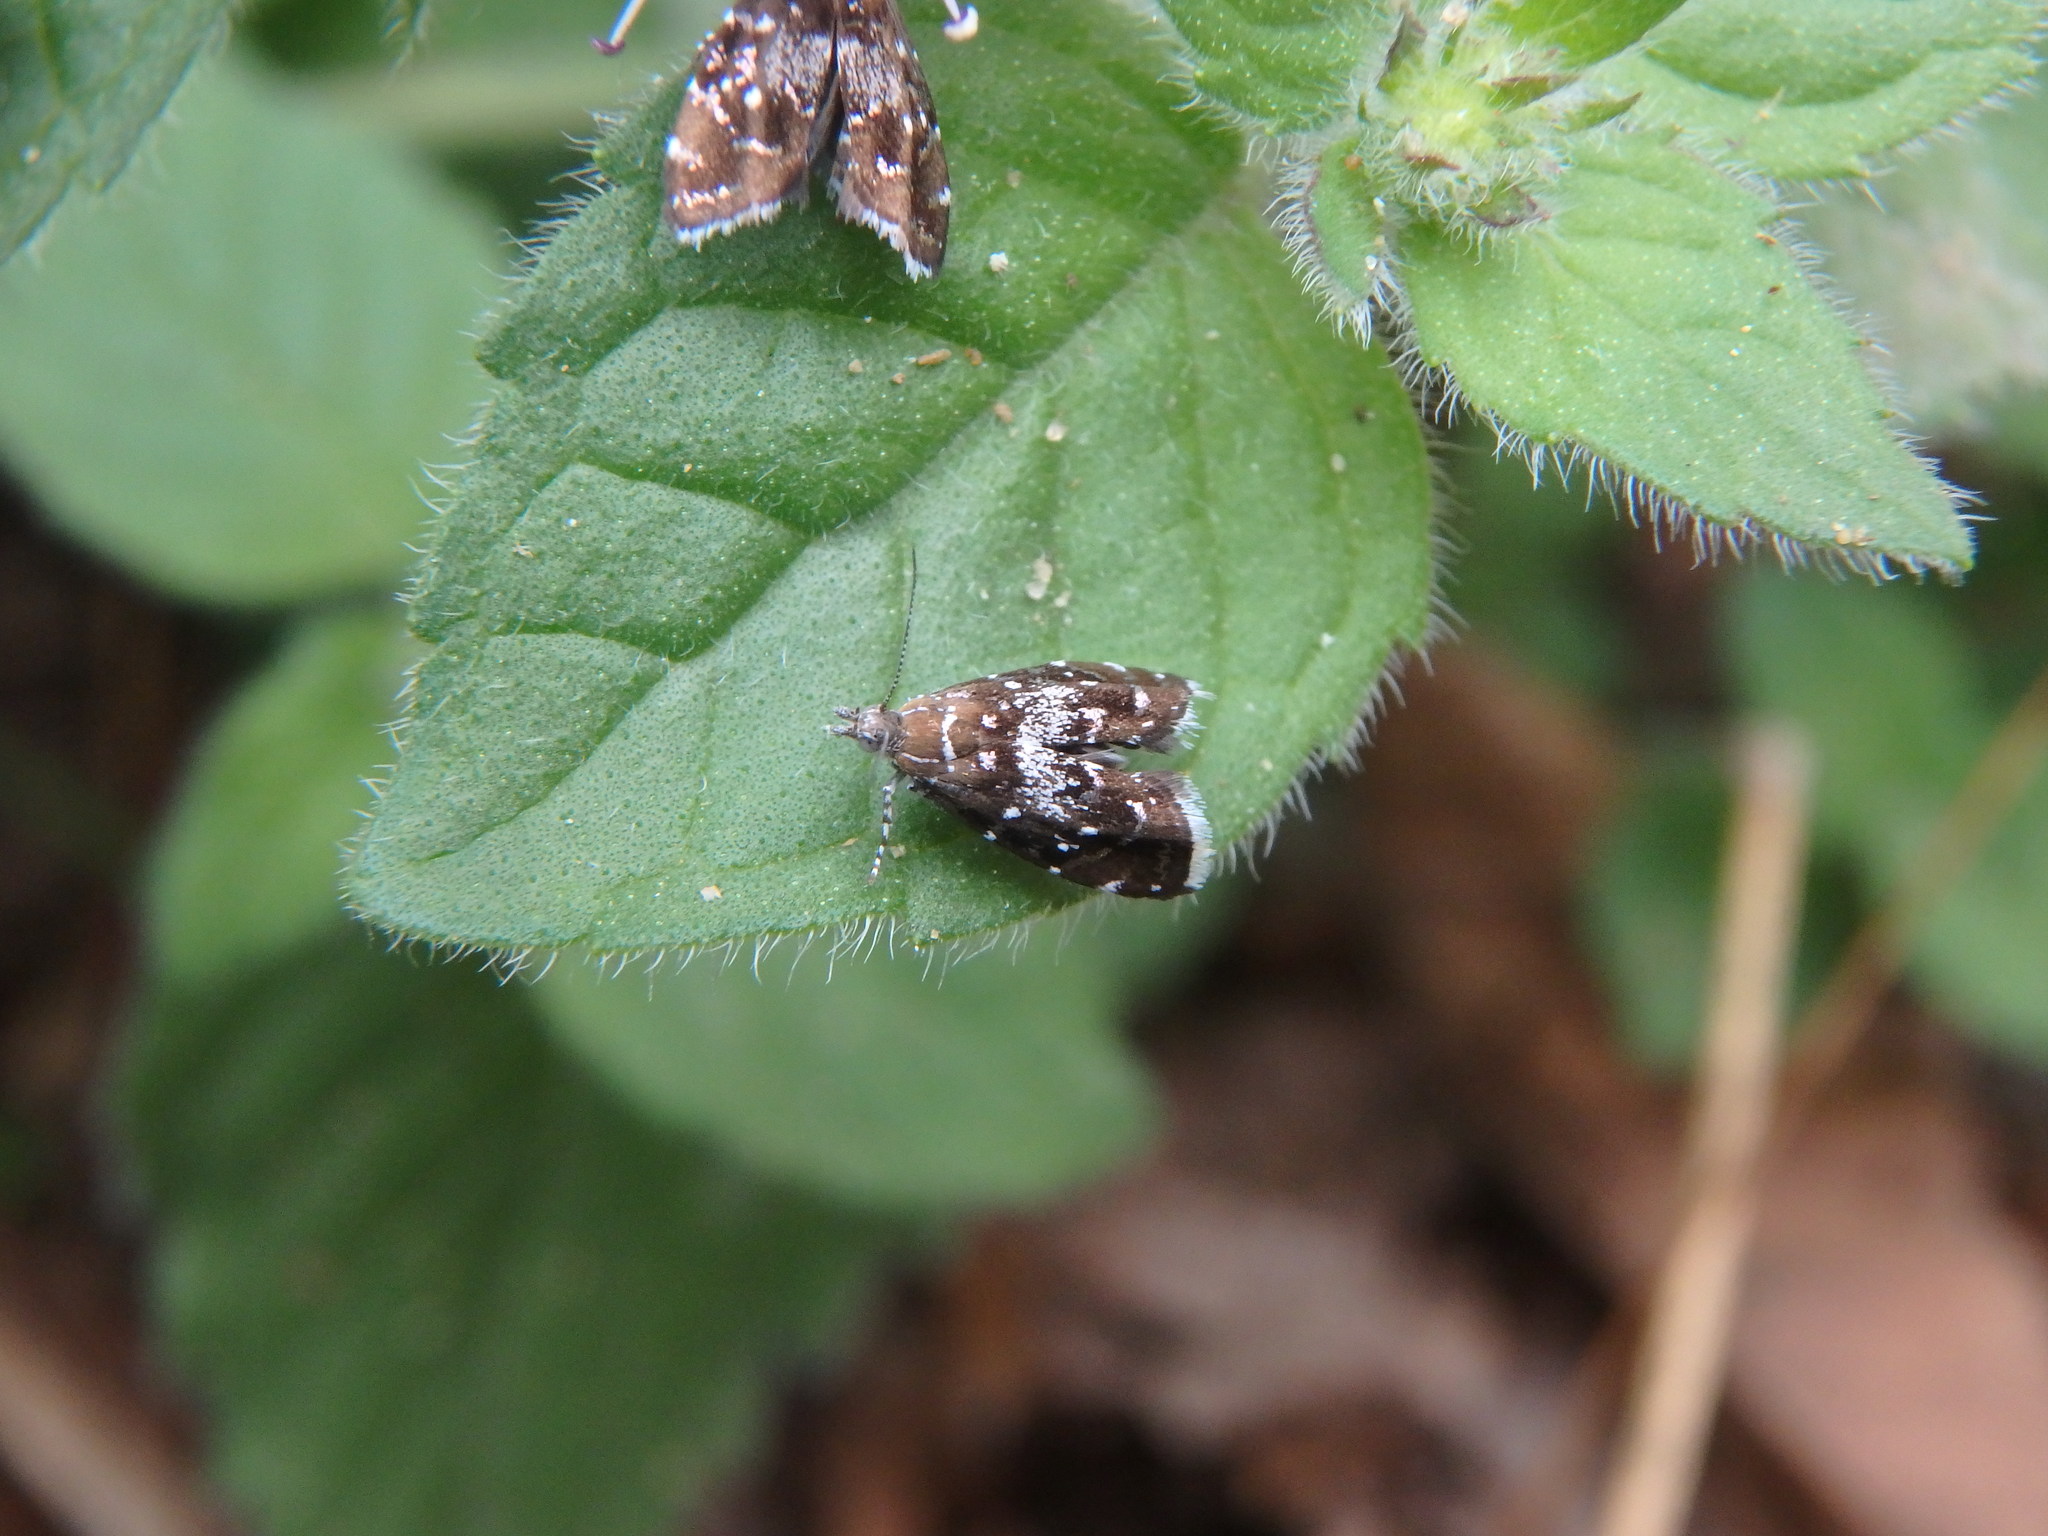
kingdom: Animalia
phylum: Arthropoda
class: Insecta
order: Lepidoptera
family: Choreutidae
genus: Prochoreutis
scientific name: Prochoreutis
